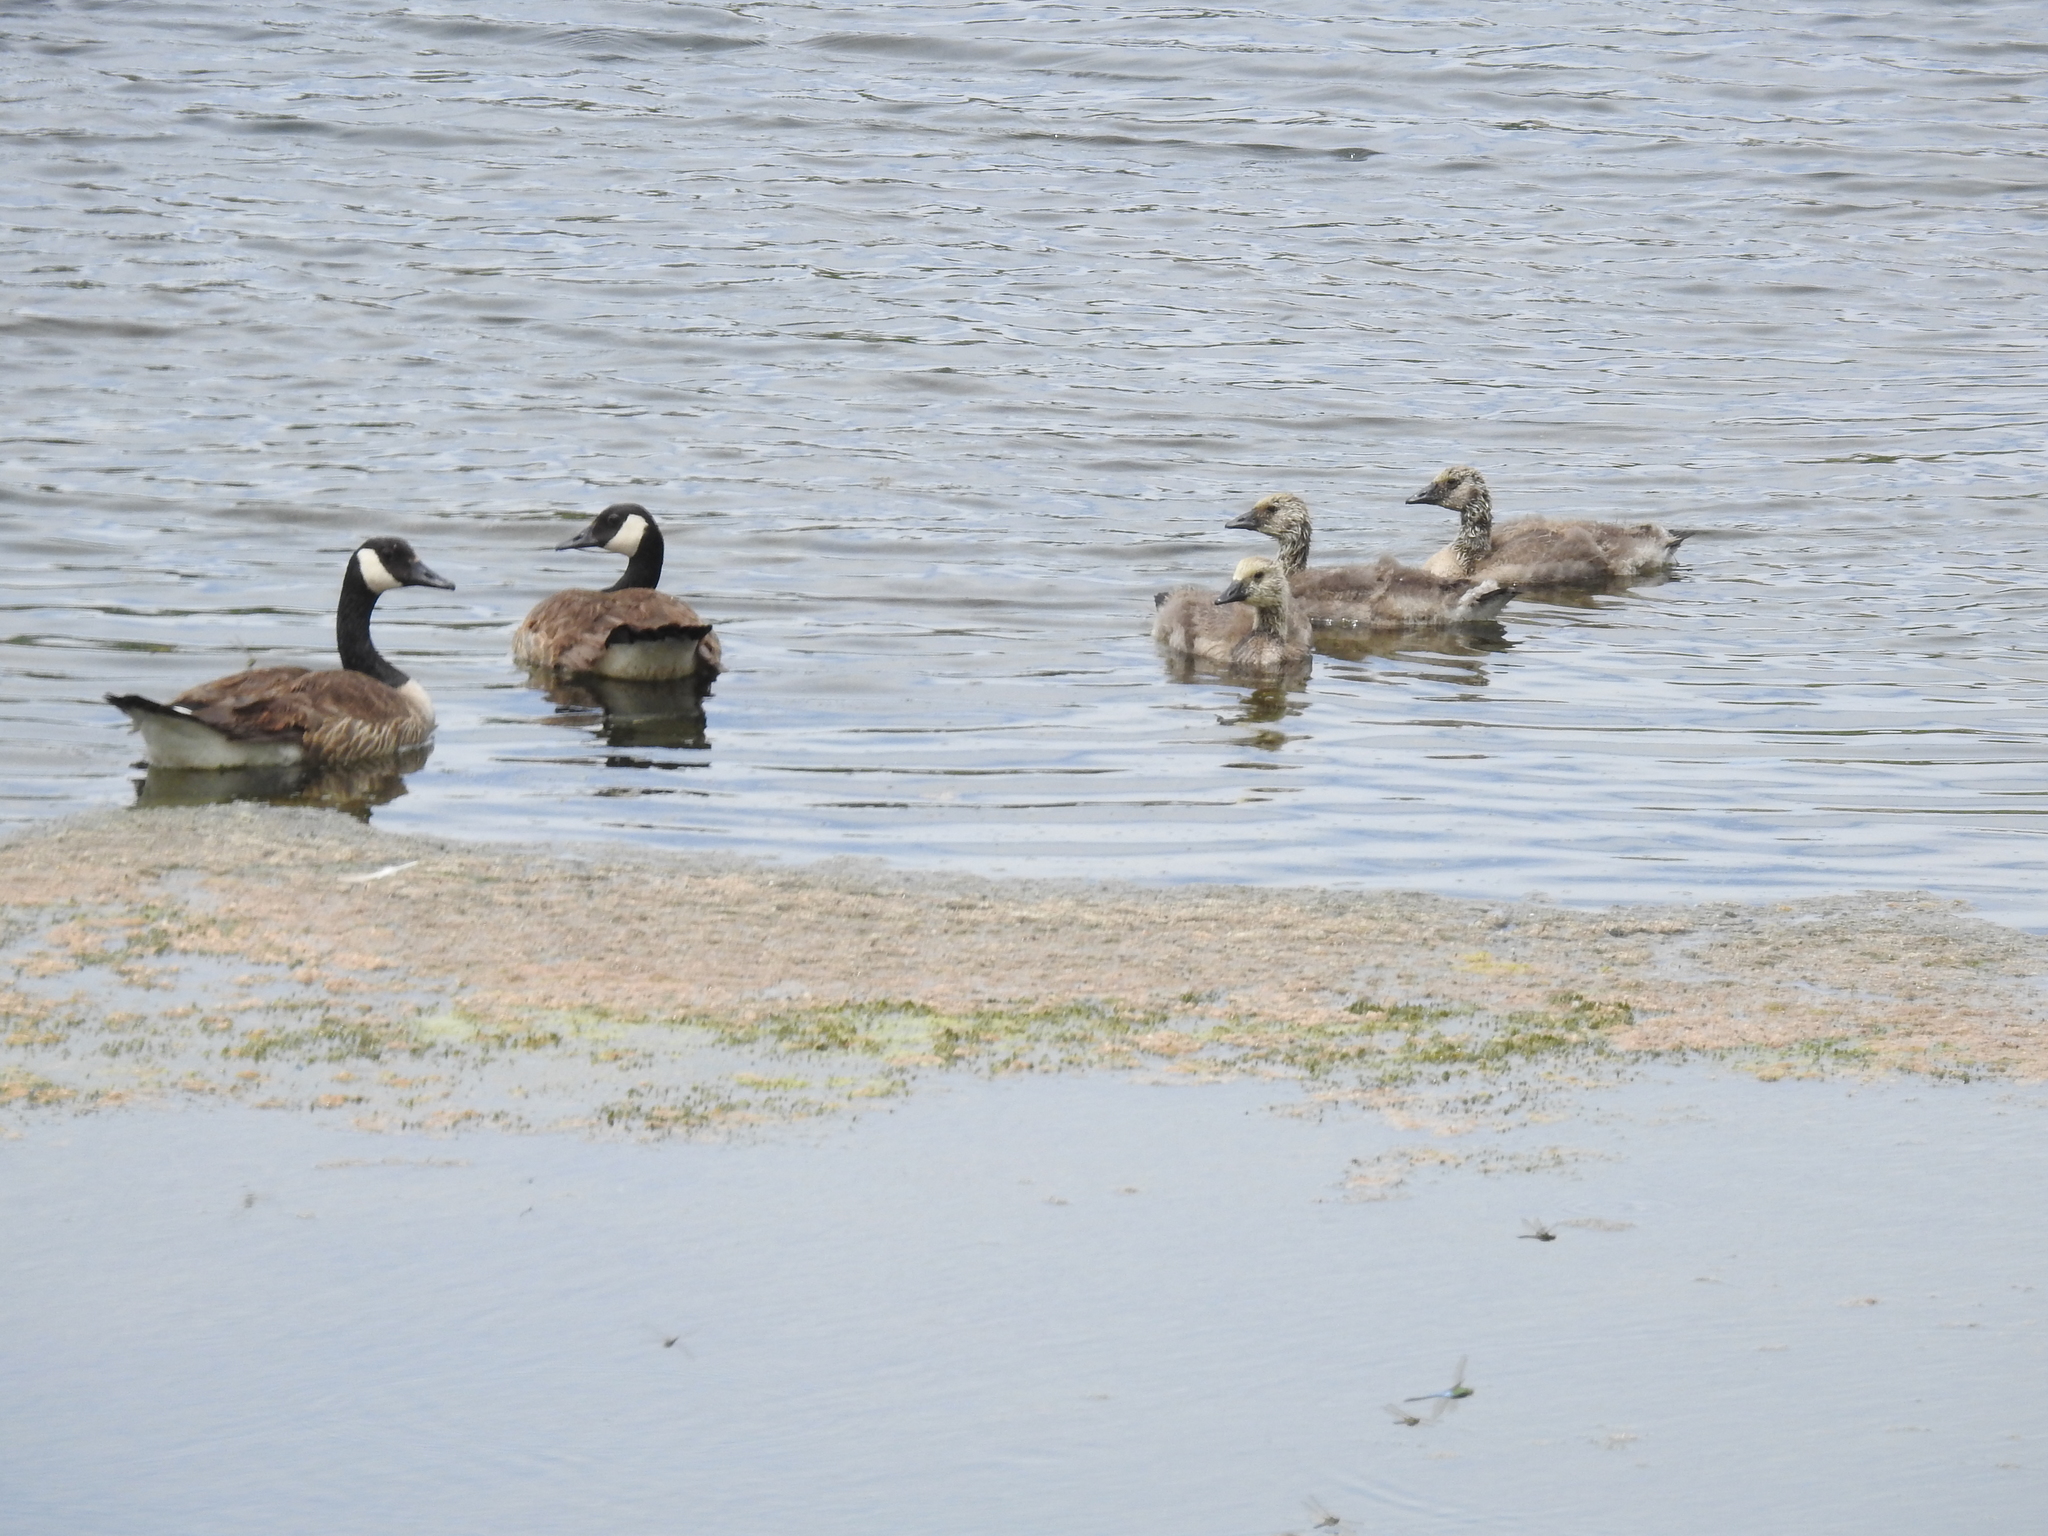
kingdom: Animalia
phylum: Chordata
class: Aves
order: Anseriformes
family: Anatidae
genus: Branta
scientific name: Branta canadensis
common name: Canada goose
